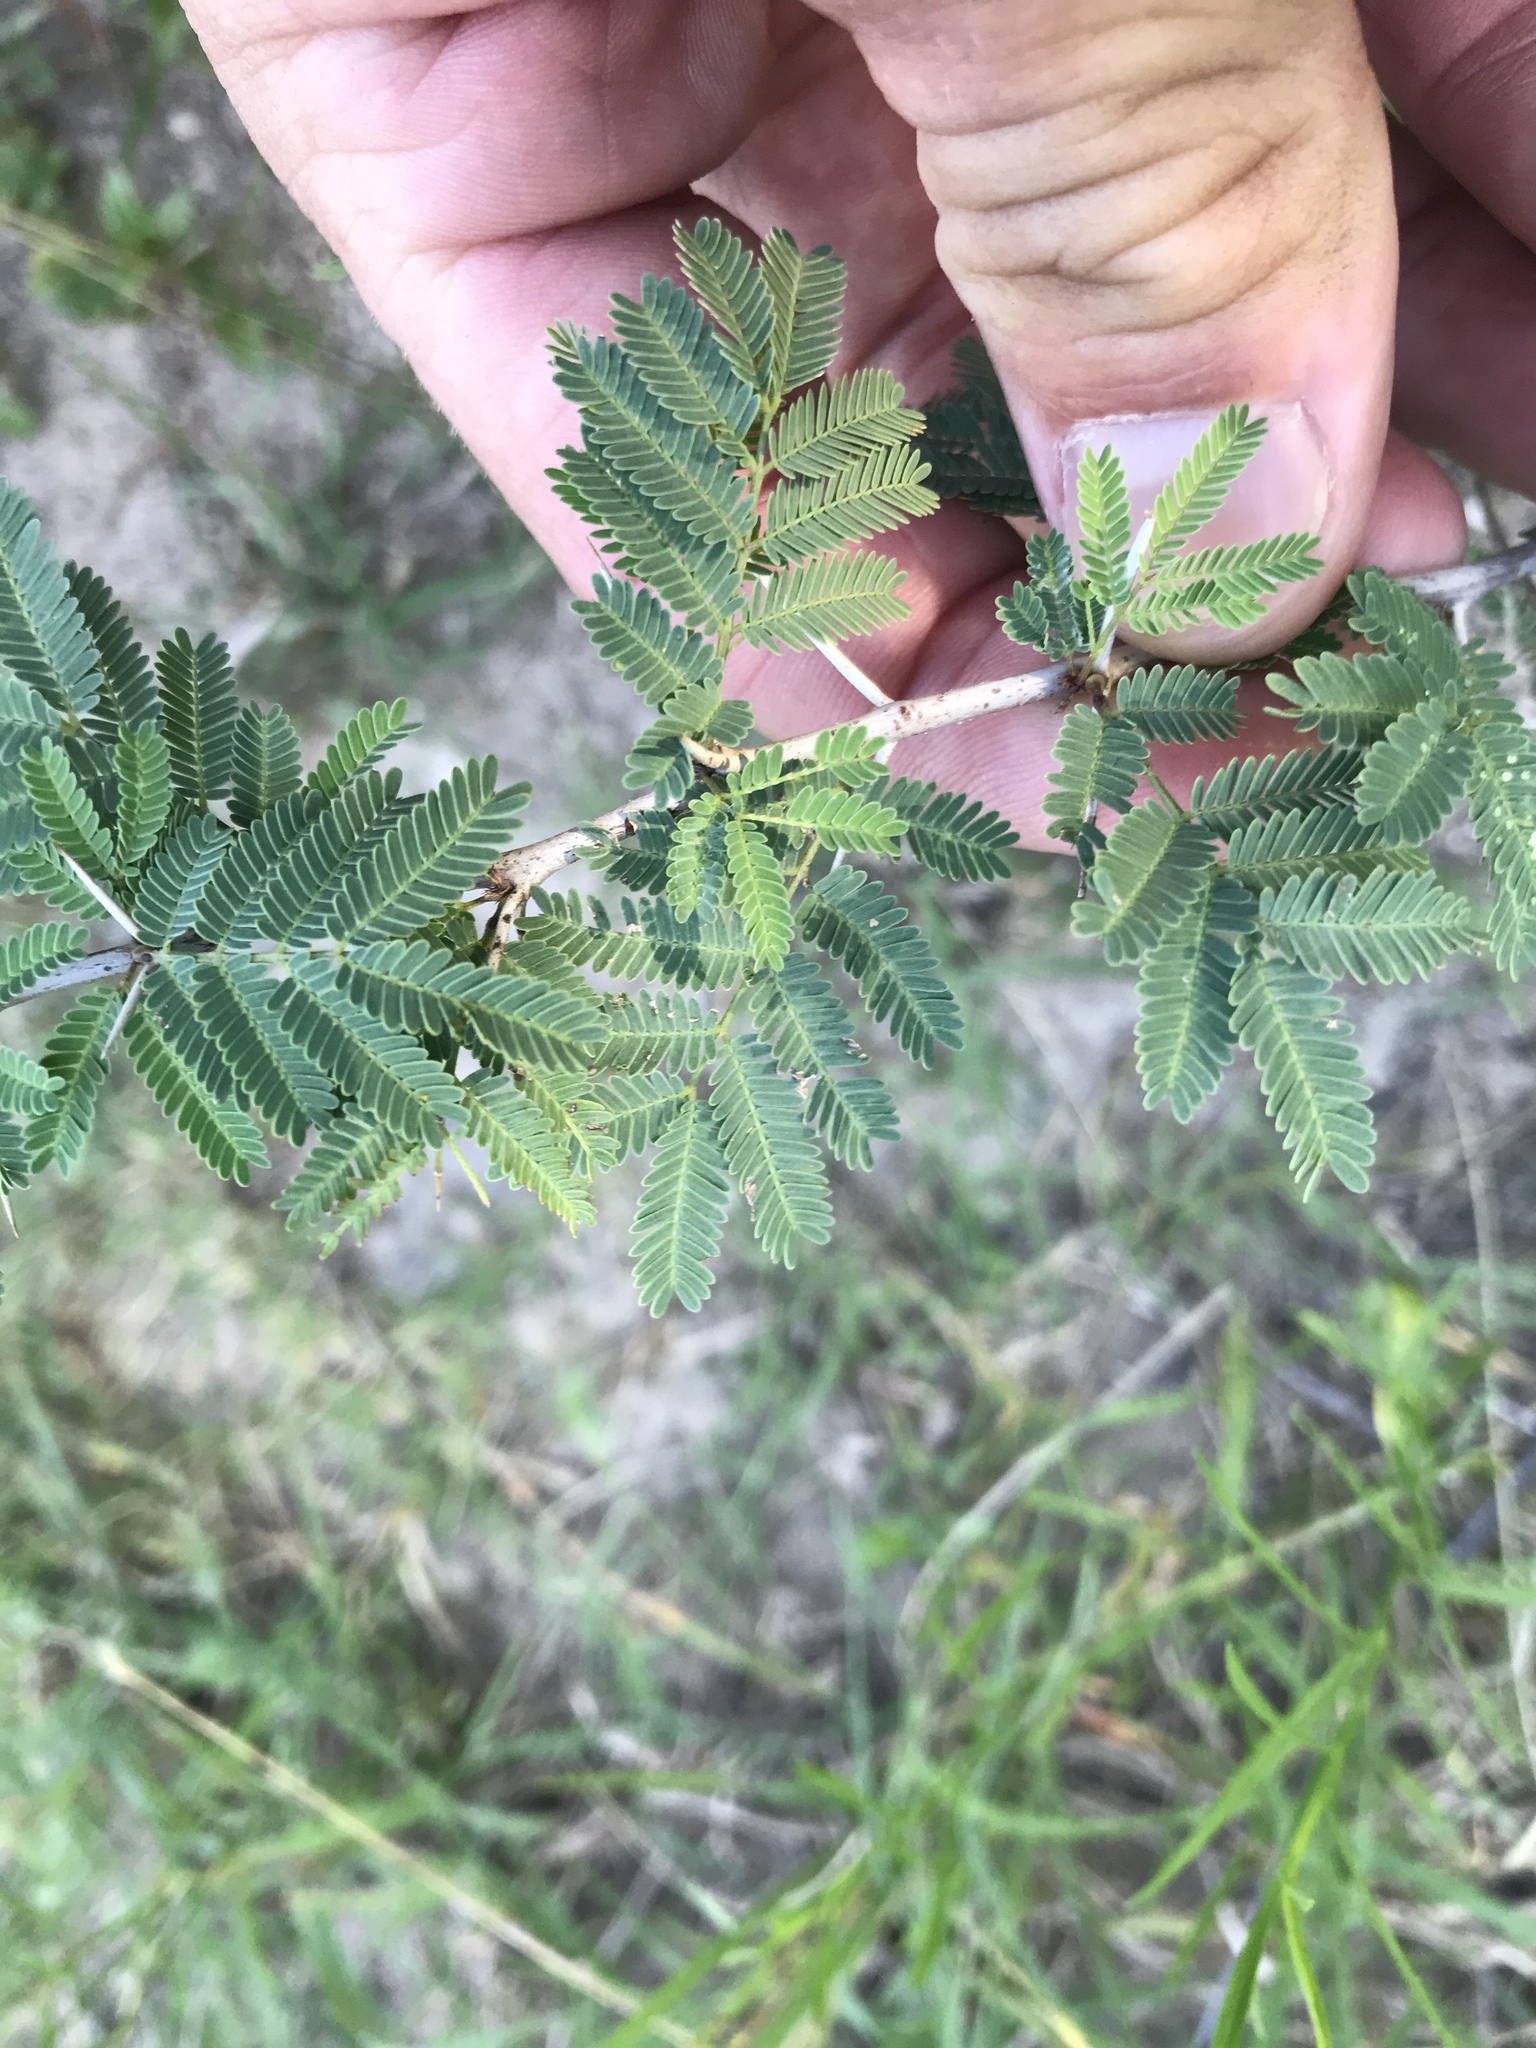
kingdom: Plantae
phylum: Tracheophyta
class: Magnoliopsida
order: Fabales
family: Fabaceae
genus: Vachellia
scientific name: Vachellia farnesiana
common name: Sweet acacia
